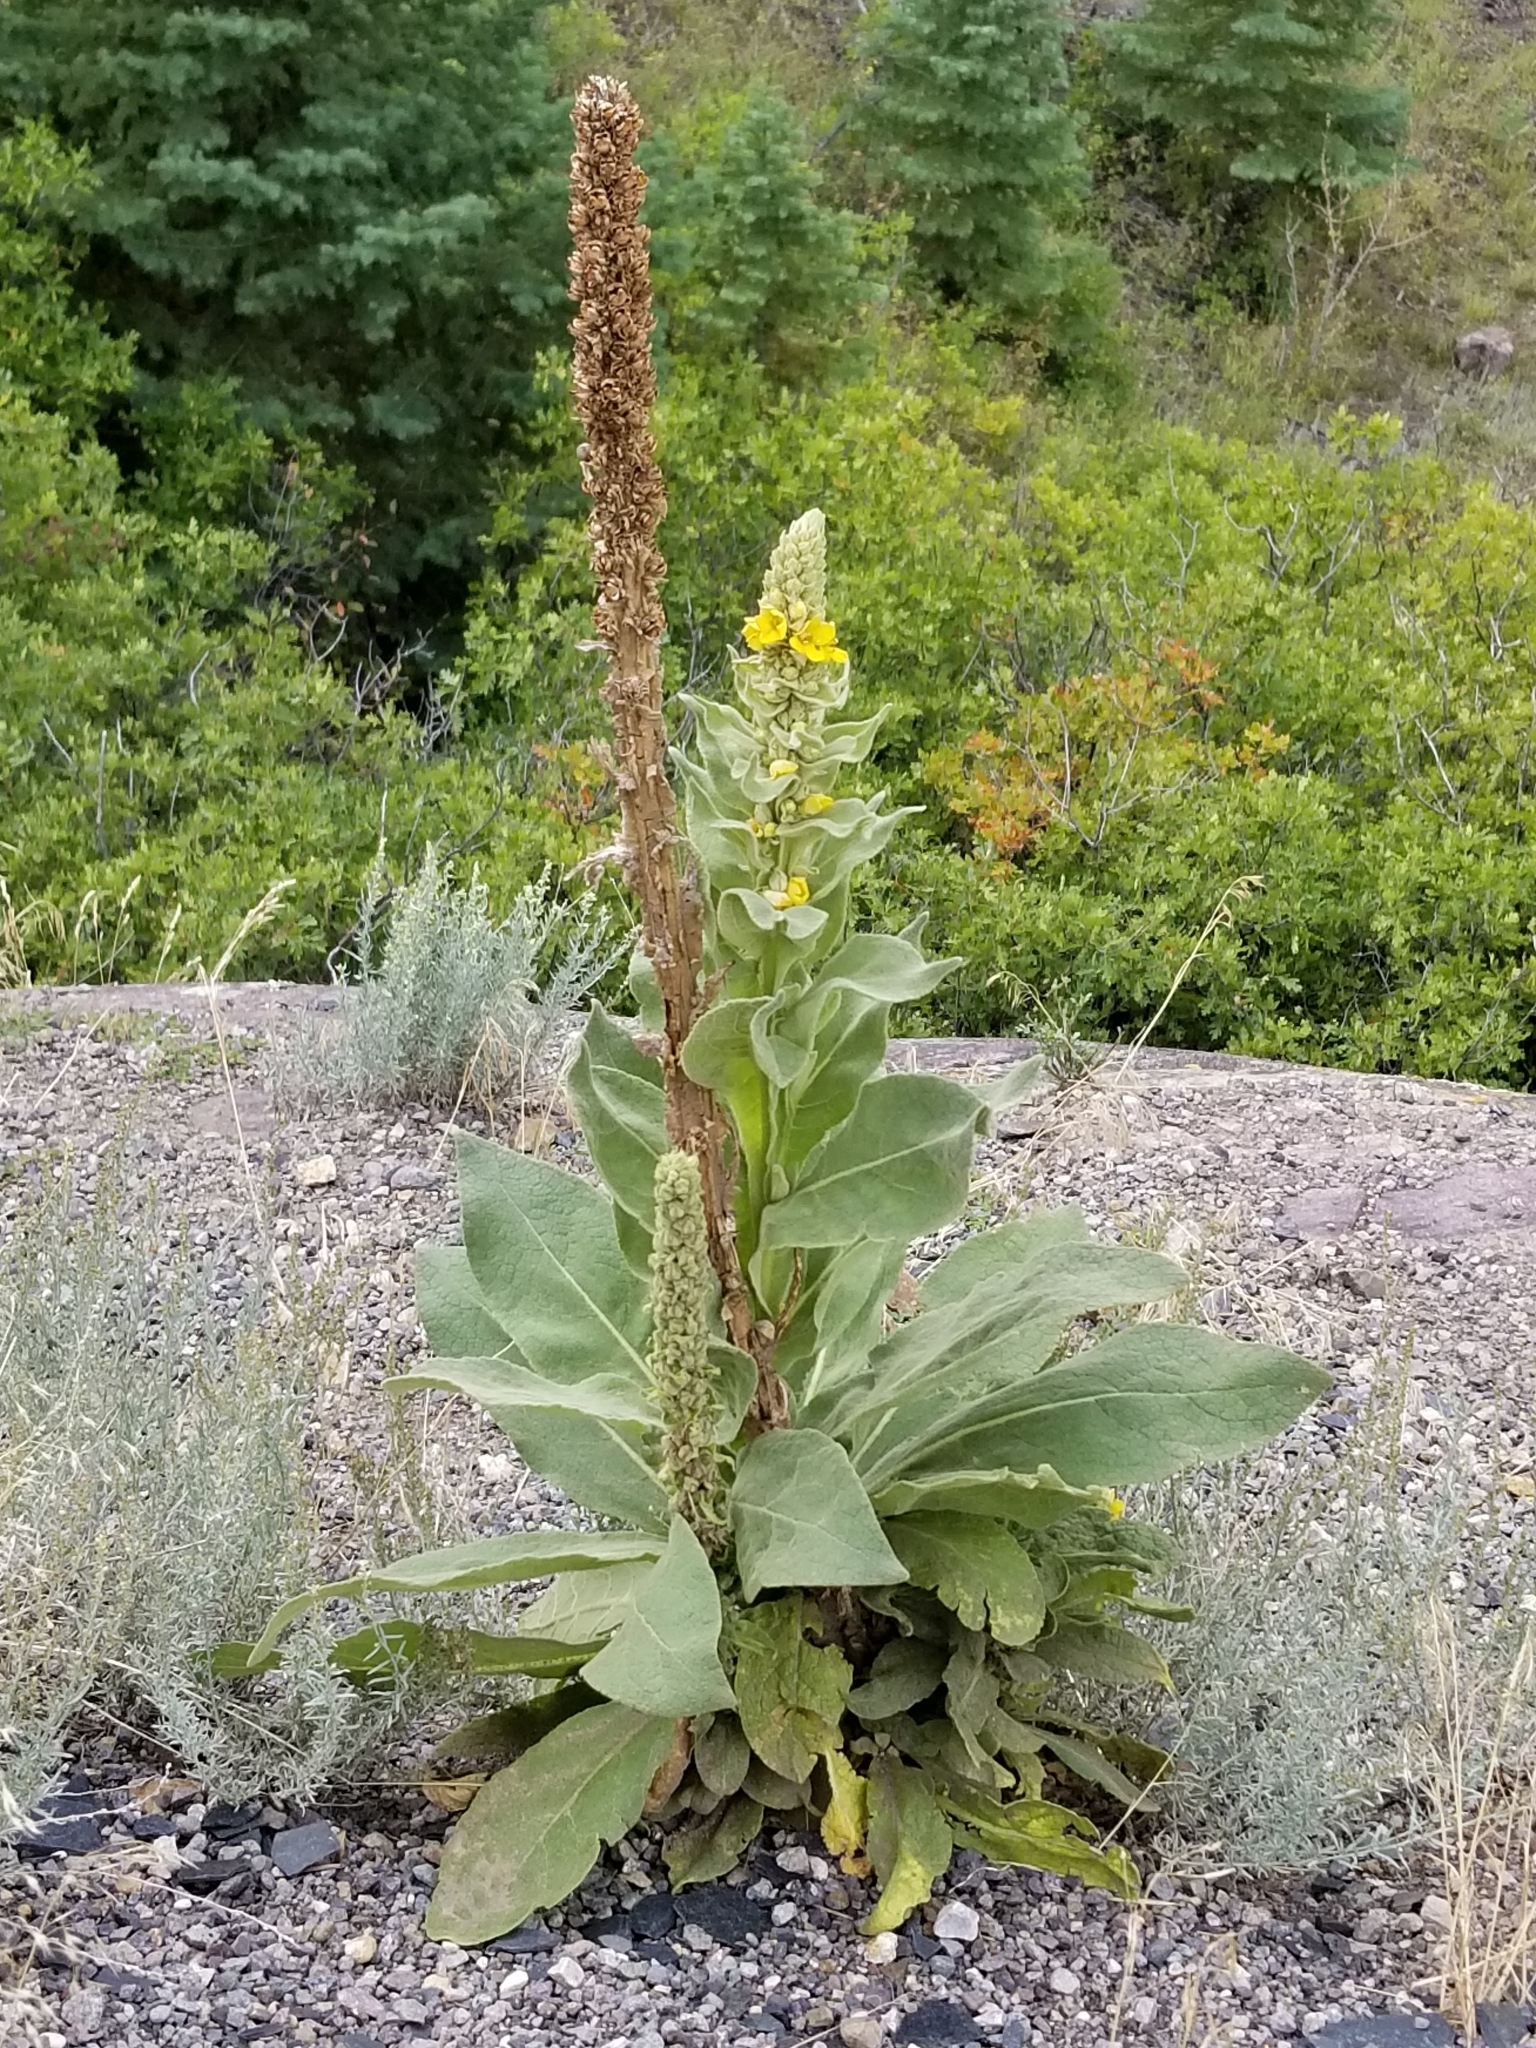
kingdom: Plantae
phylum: Tracheophyta
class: Magnoliopsida
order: Lamiales
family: Scrophulariaceae
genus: Verbascum
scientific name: Verbascum thapsus
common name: Common mullein
